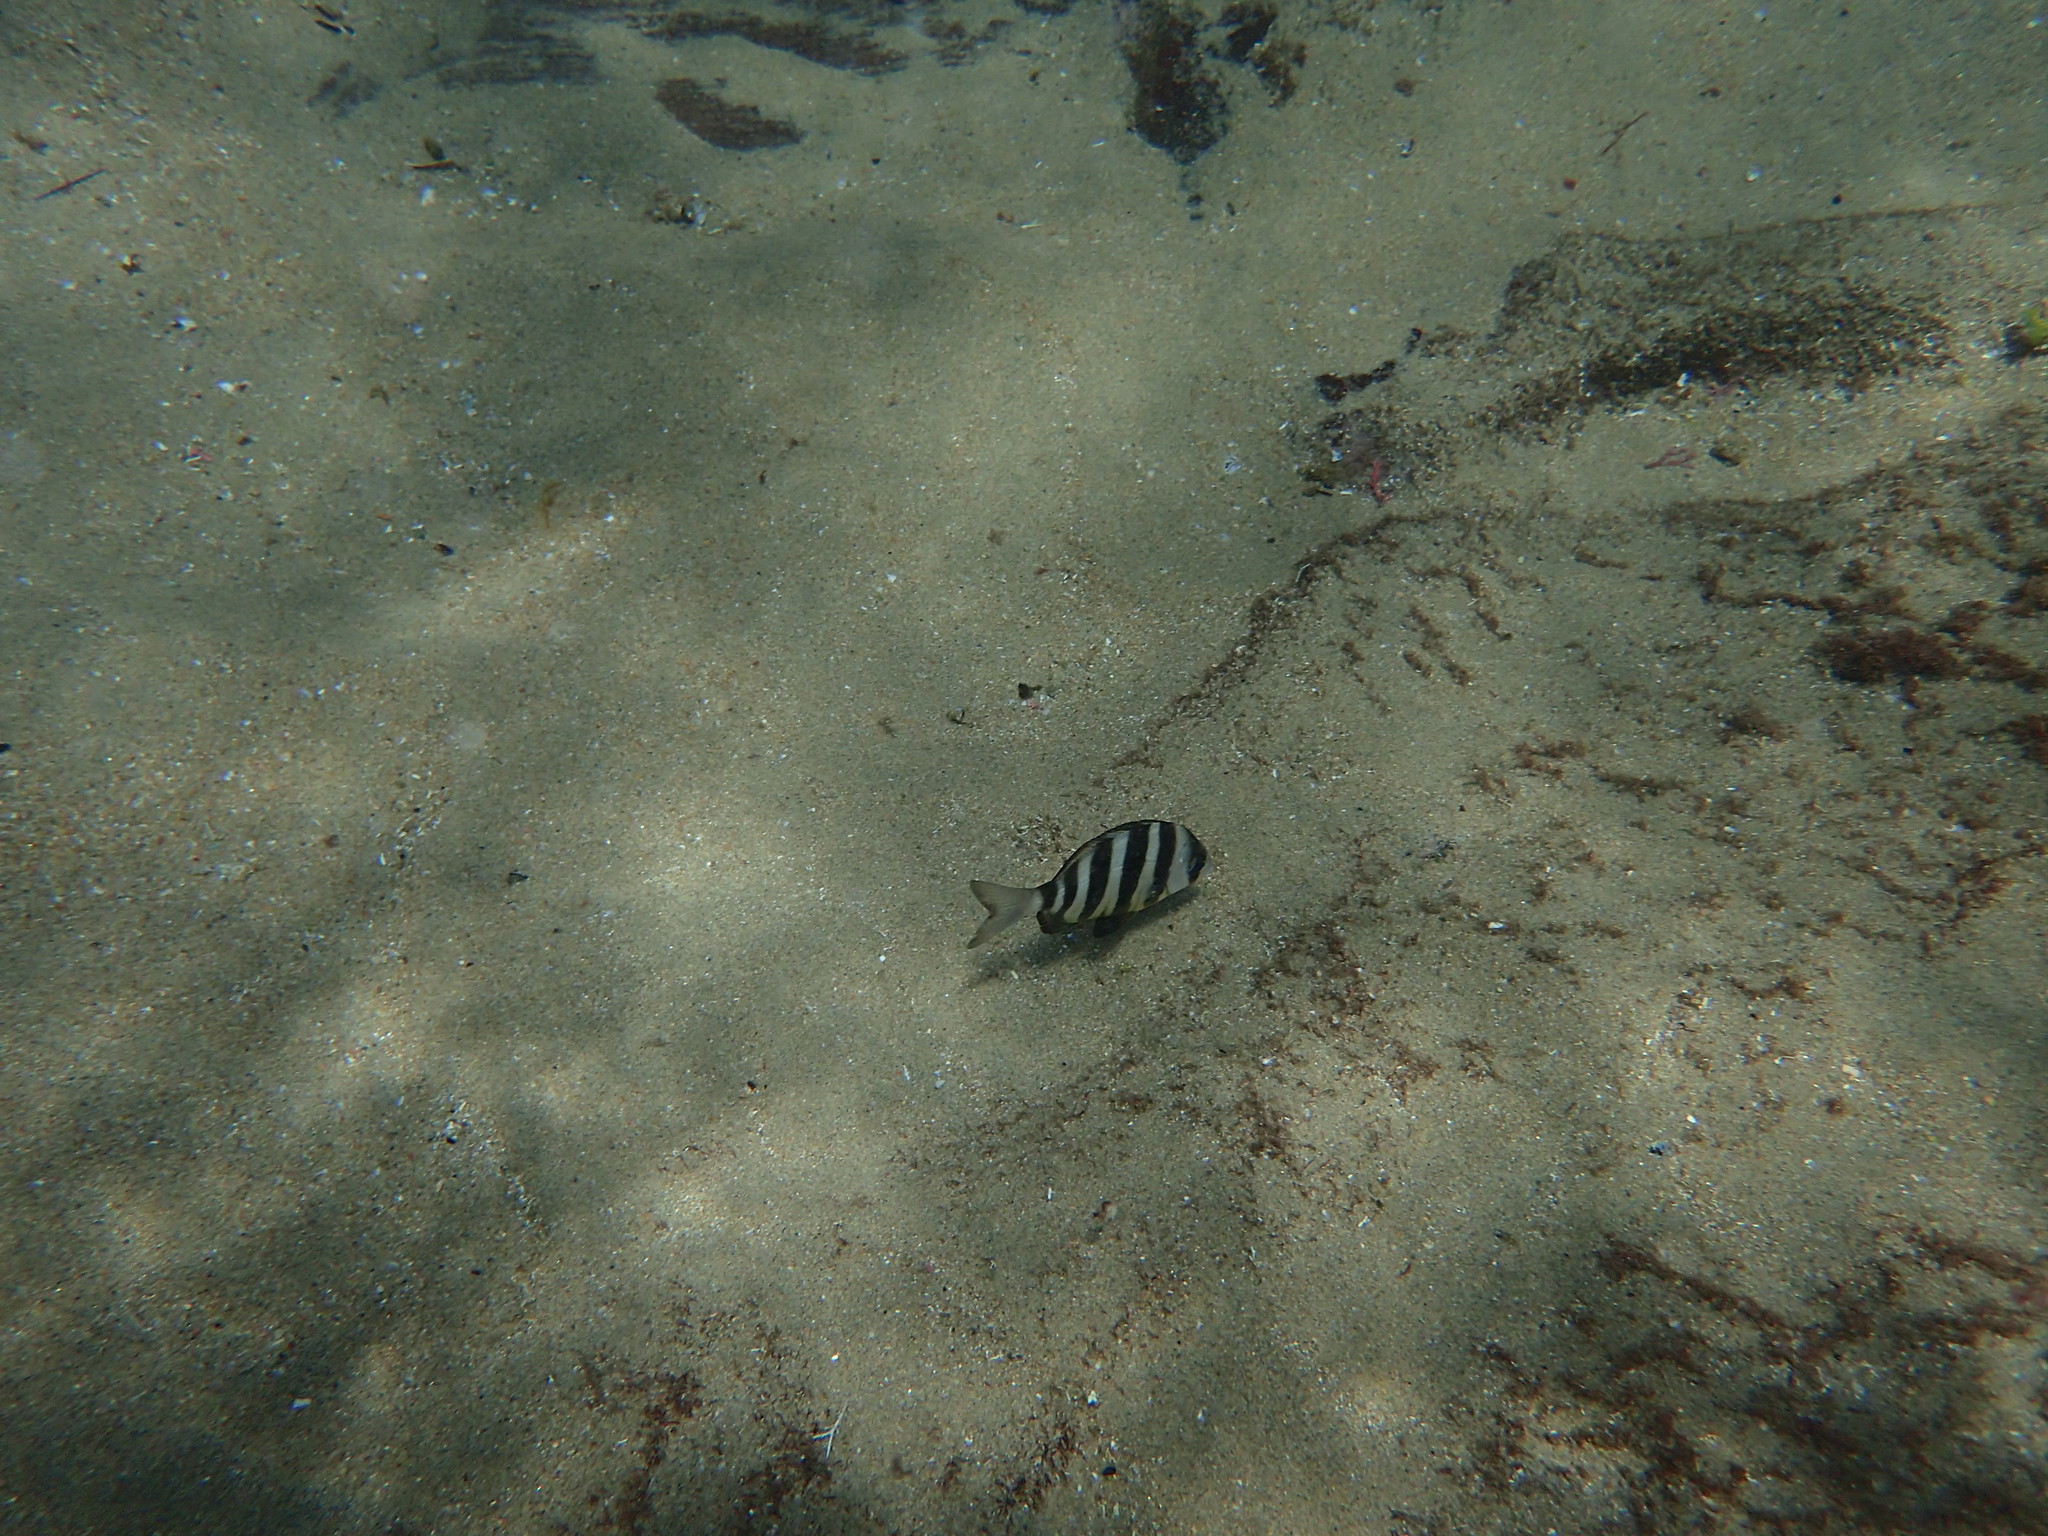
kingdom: Animalia
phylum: Chordata
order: Perciformes
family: Sparidae
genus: Diplodus
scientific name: Diplodus hottentotus
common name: Zebra
